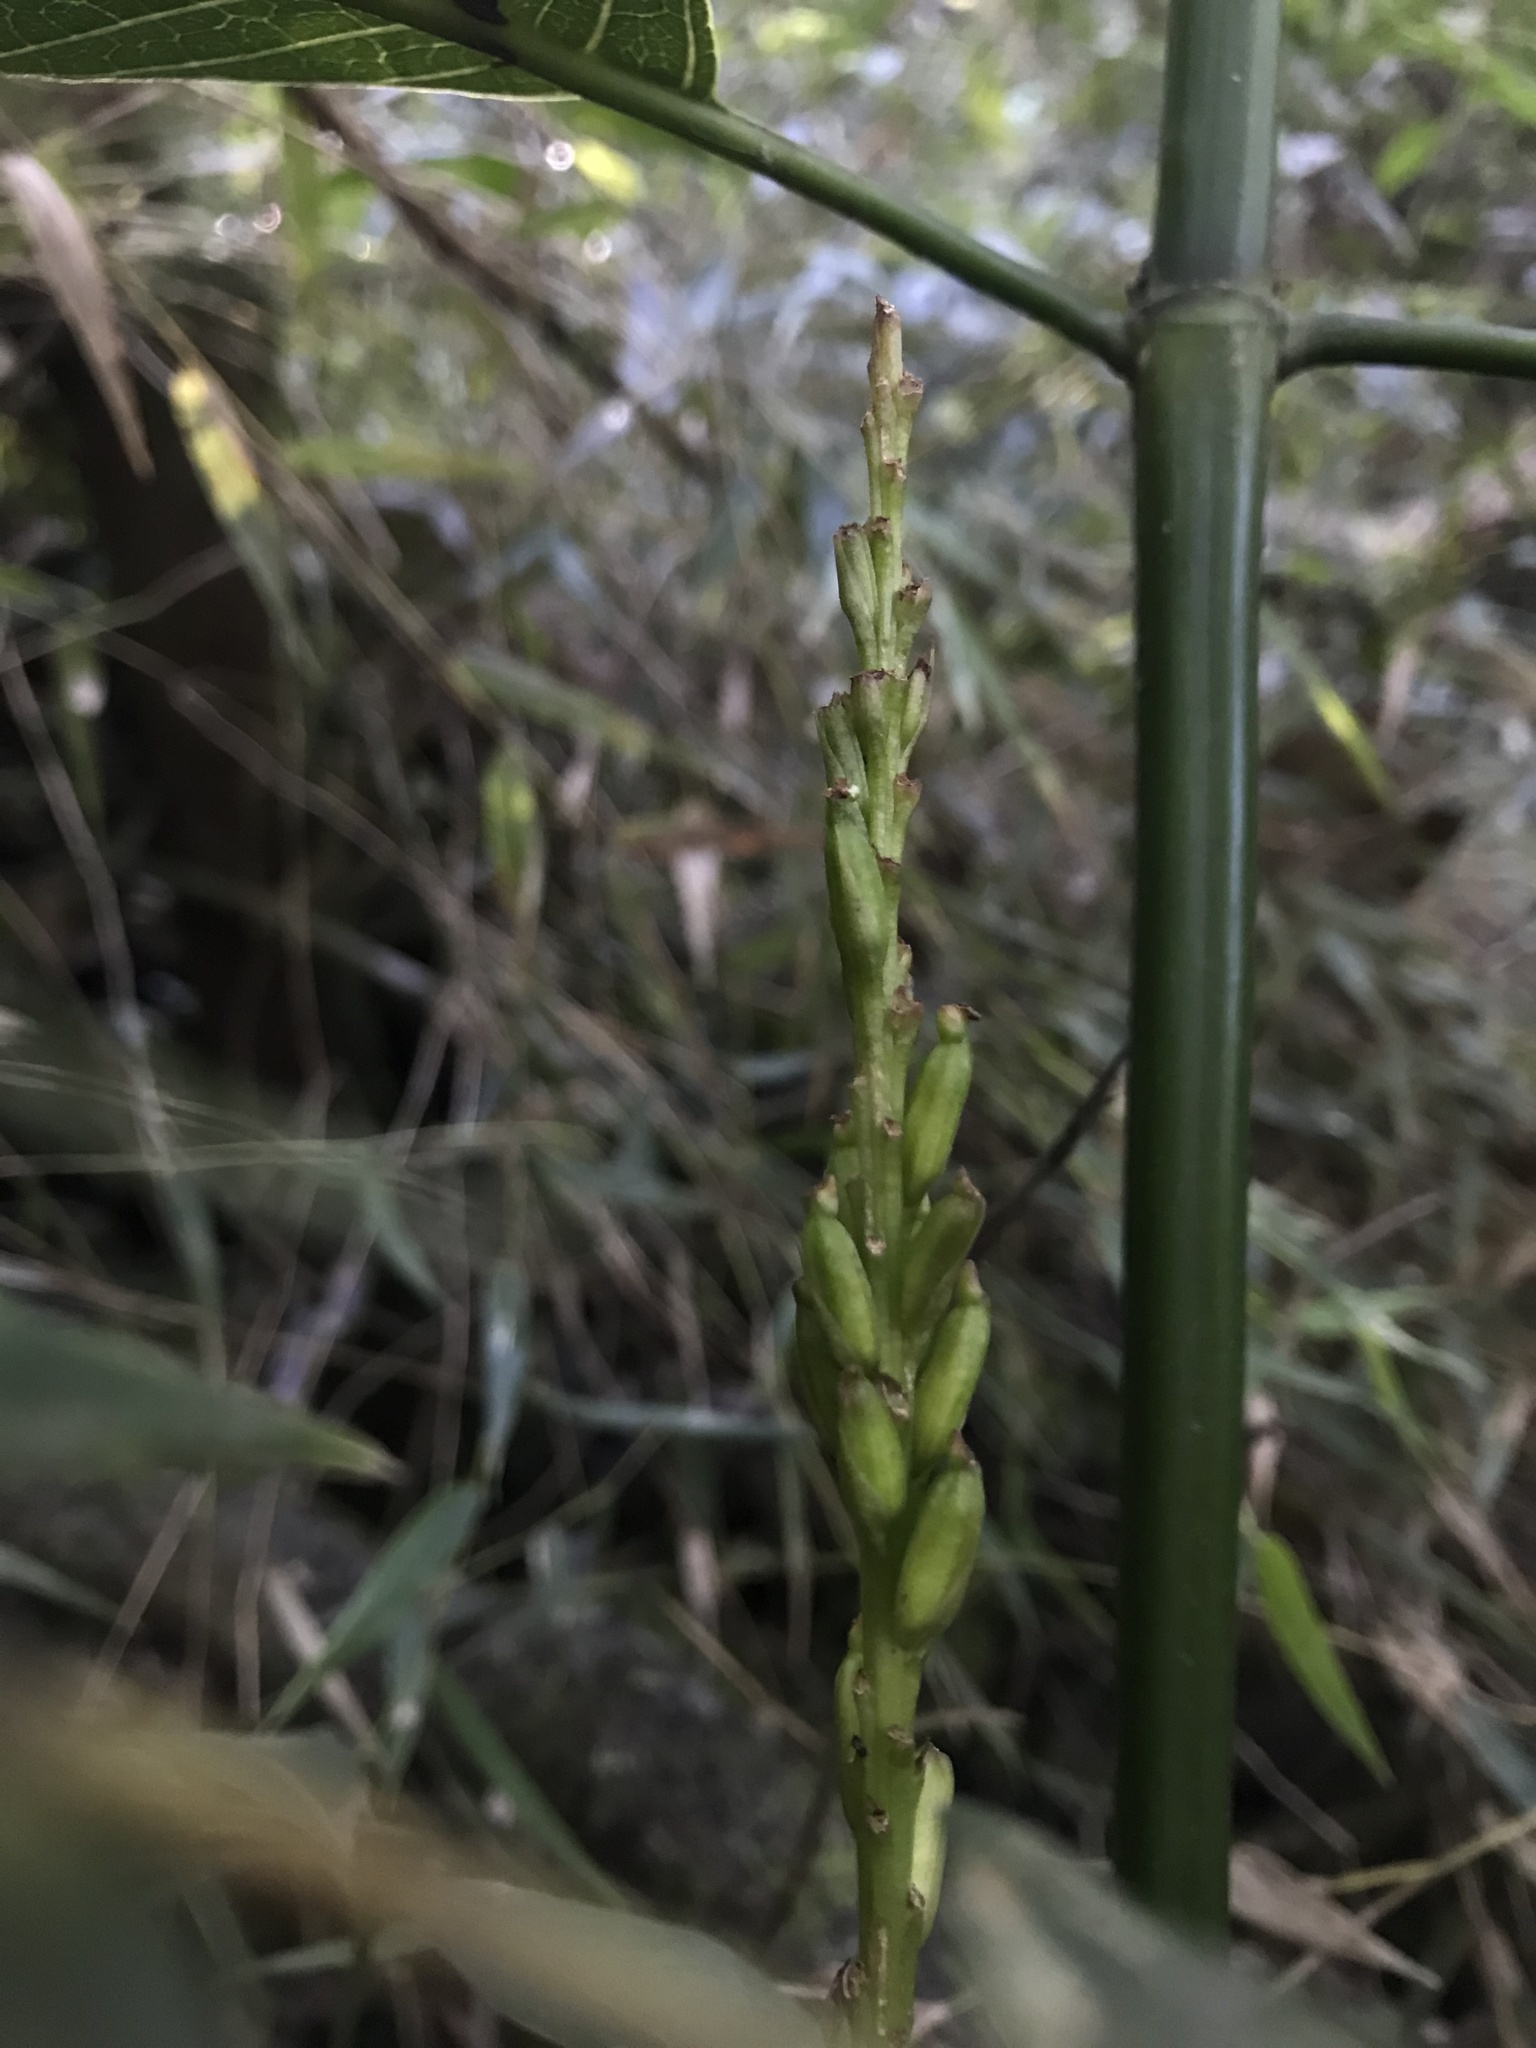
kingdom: Plantae
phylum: Tracheophyta
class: Liliopsida
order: Asparagales
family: Orchidaceae
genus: Prescottia
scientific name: Prescottia stachyodes
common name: Mountain prescott orchid
